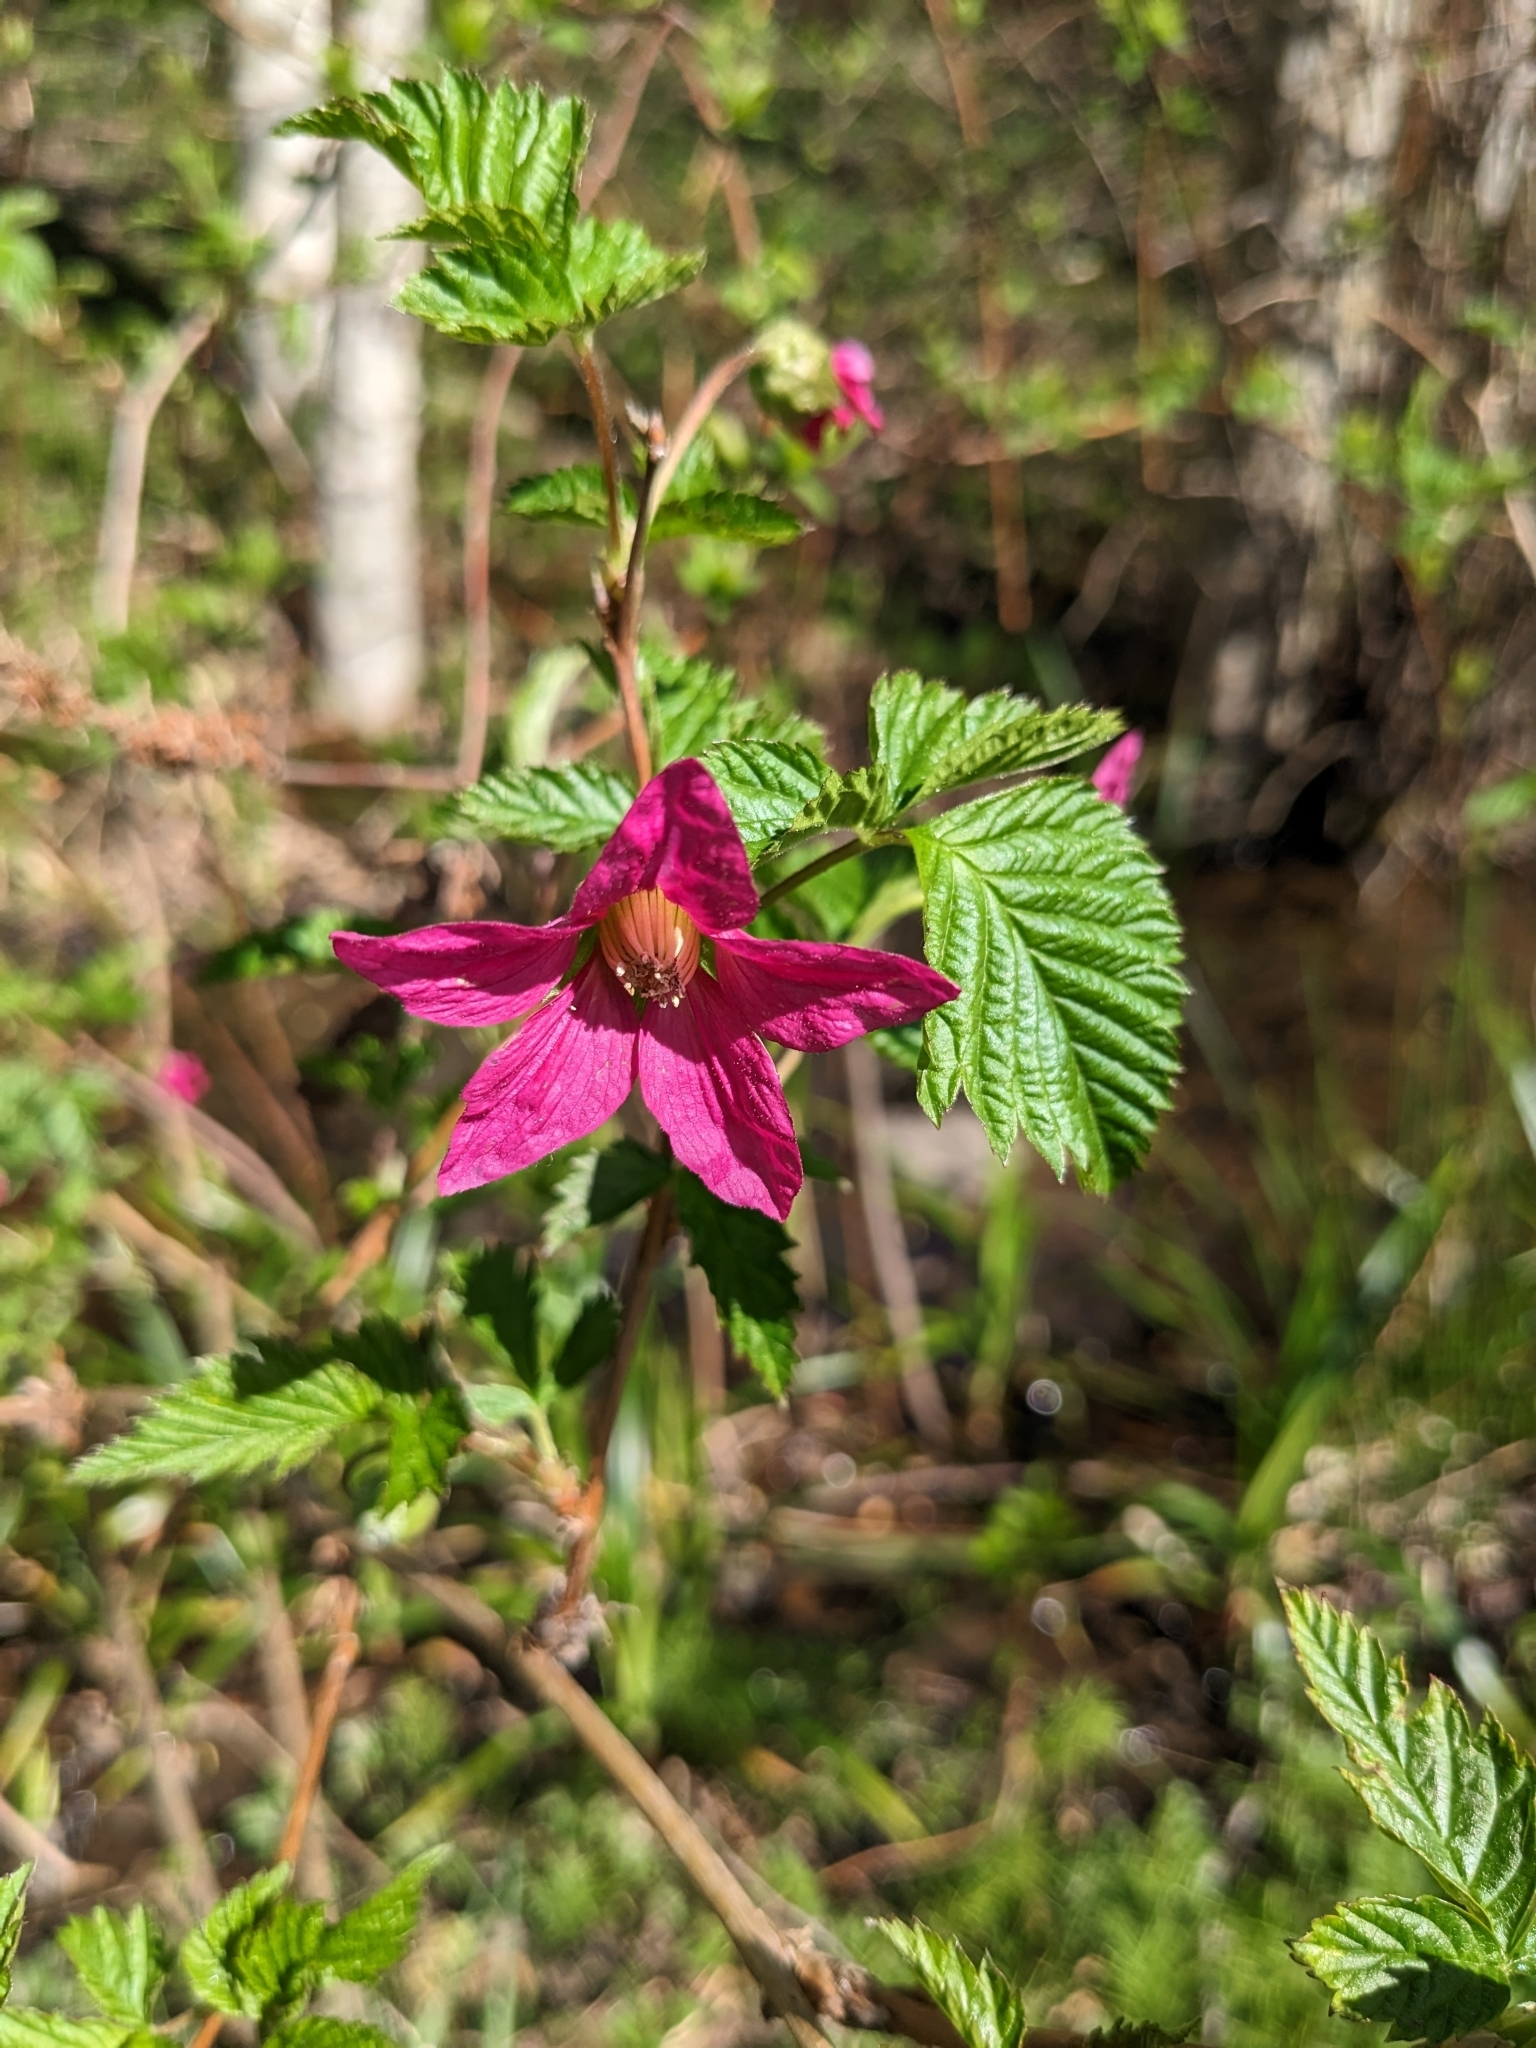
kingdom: Plantae
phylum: Tracheophyta
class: Magnoliopsida
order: Rosales
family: Rosaceae
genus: Rubus
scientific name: Rubus spectabilis
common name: Salmonberry
